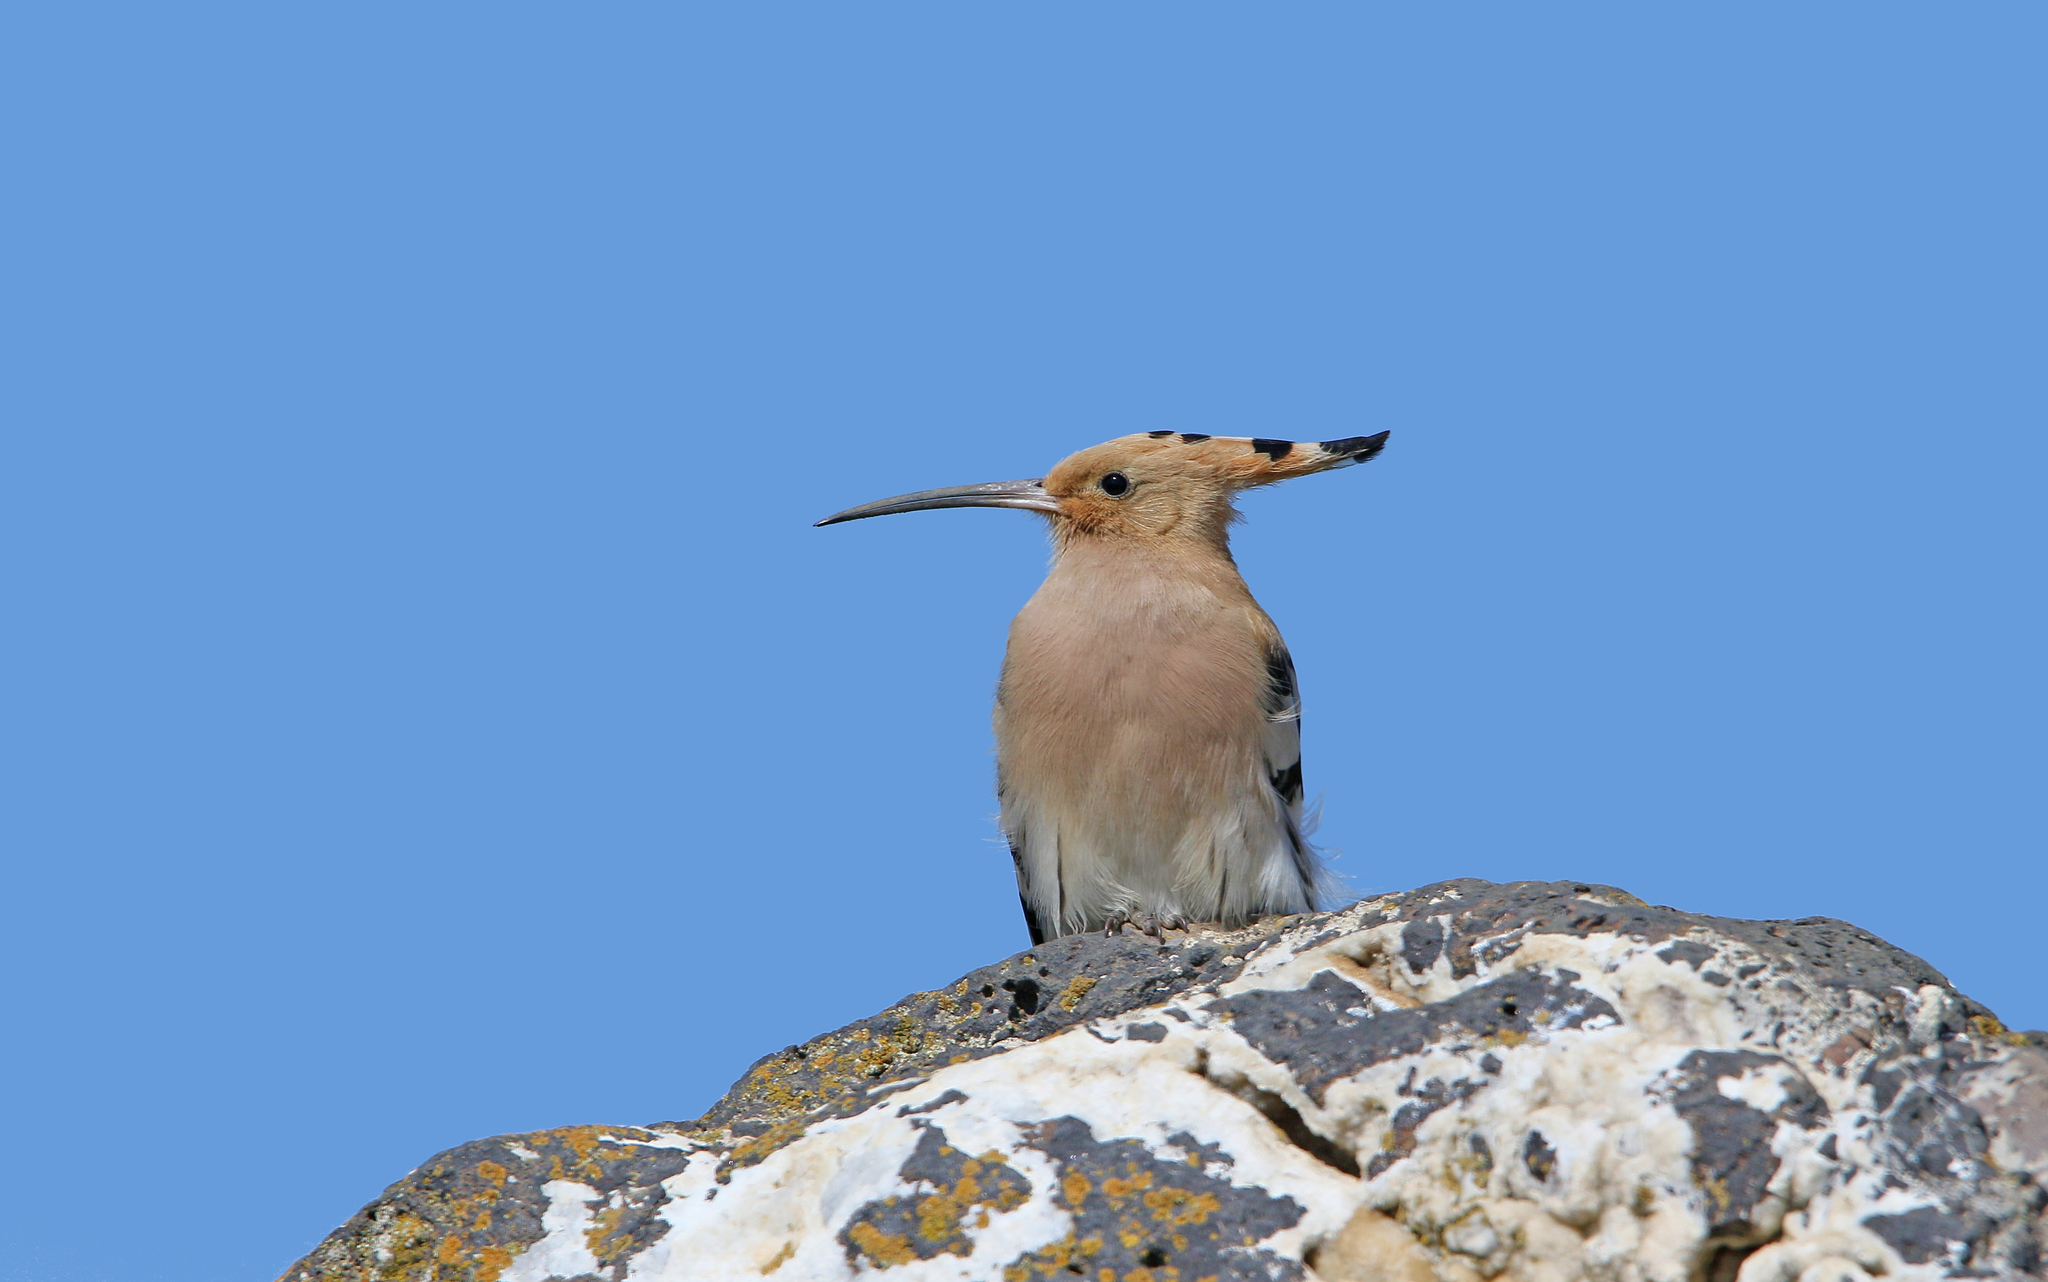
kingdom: Animalia
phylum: Chordata
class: Aves
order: Bucerotiformes
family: Upupidae
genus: Upupa
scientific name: Upupa epops
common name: Eurasian hoopoe
